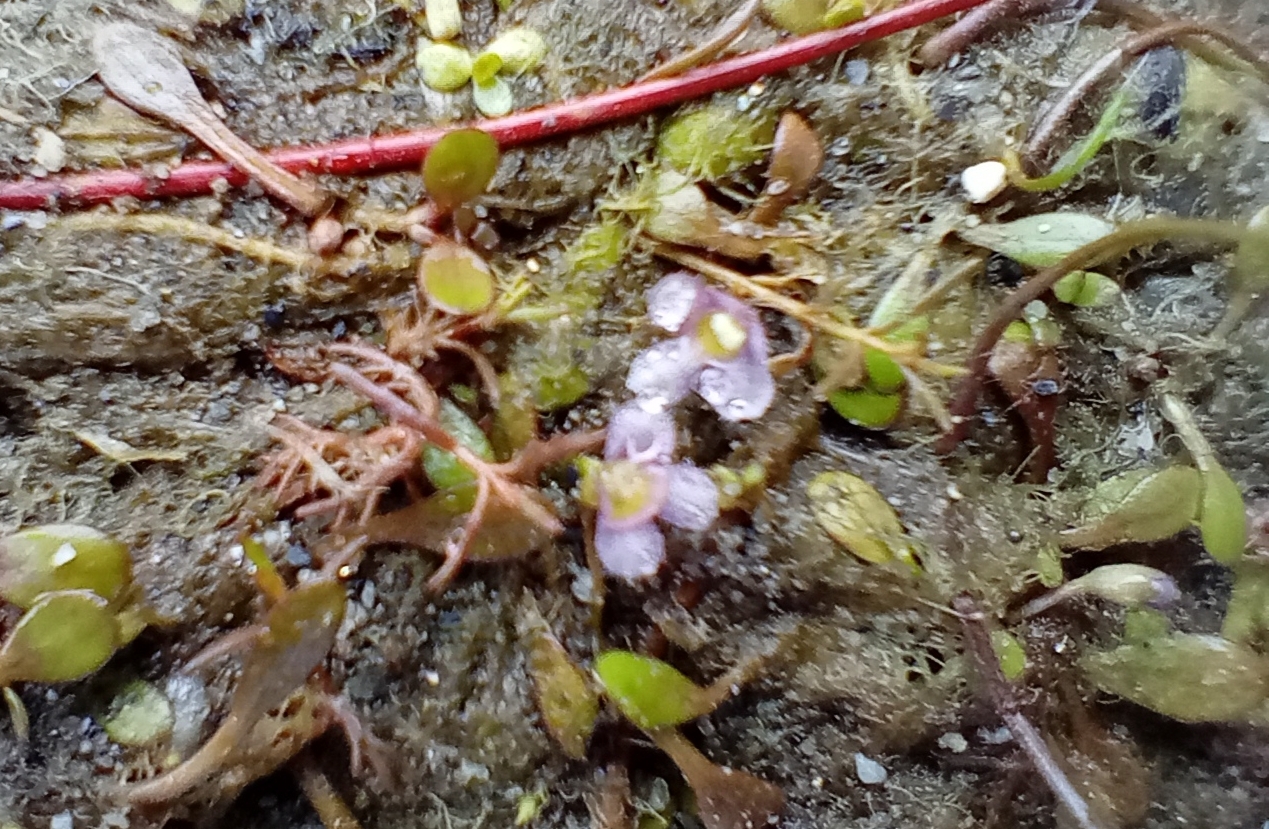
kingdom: Plantae
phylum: Tracheophyta
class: Magnoliopsida
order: Lamiales
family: Phrymaceae
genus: Glossostigma
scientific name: Glossostigma elatinoides
